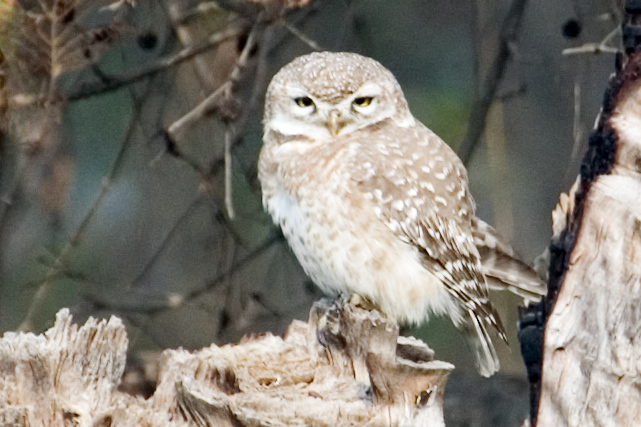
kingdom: Animalia
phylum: Chordata
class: Aves
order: Strigiformes
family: Strigidae
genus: Athene
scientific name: Athene brama
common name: Spotted owlet
